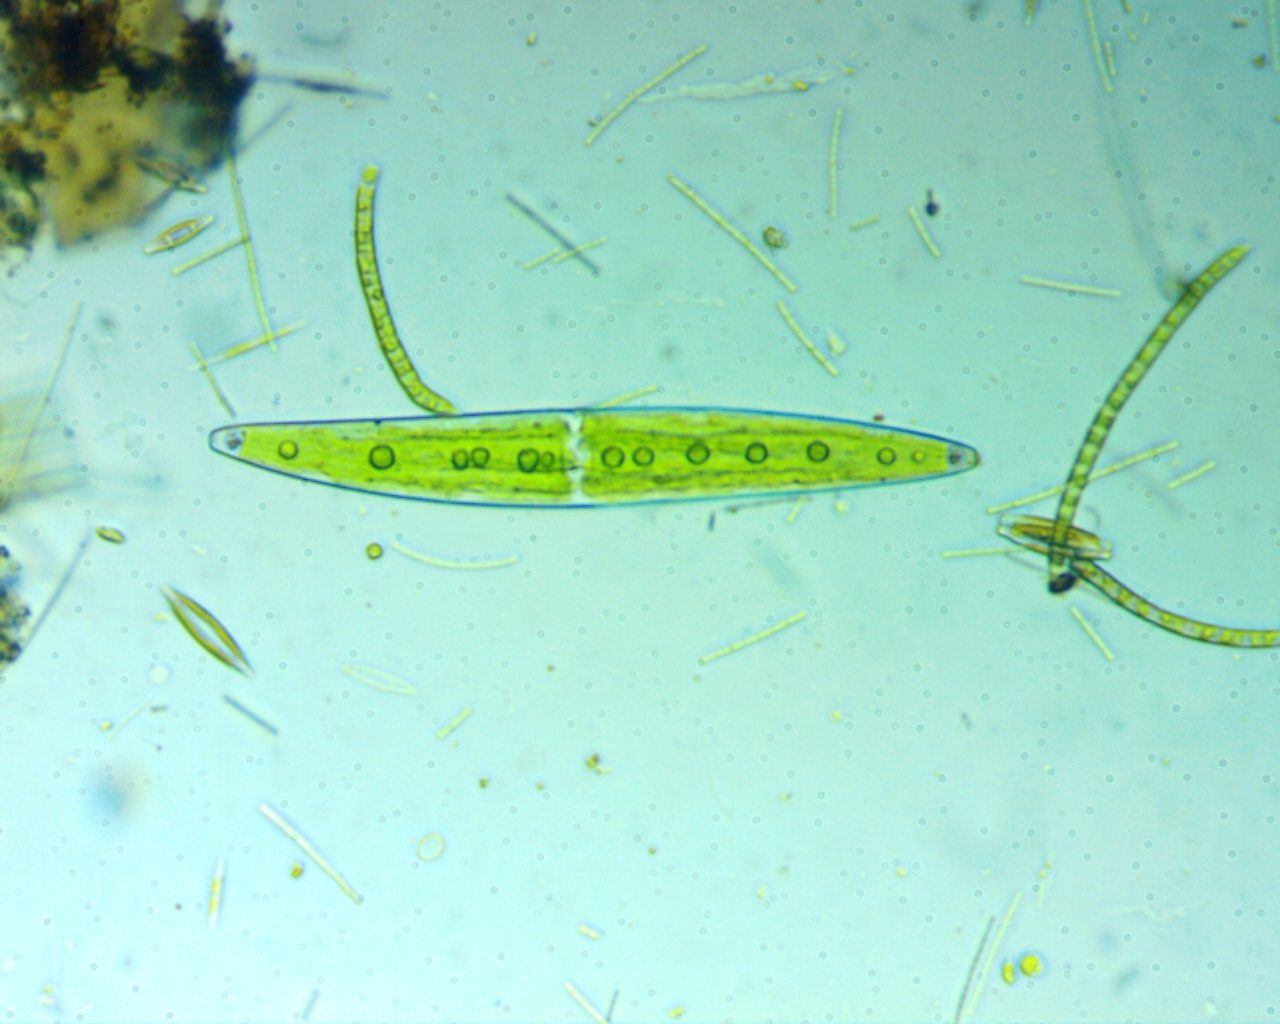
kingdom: Plantae
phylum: Charophyta
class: Zygnematophyceae
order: Zygnematales
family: Closteriaceae
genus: Closterium
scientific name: Closterium moniliferum
